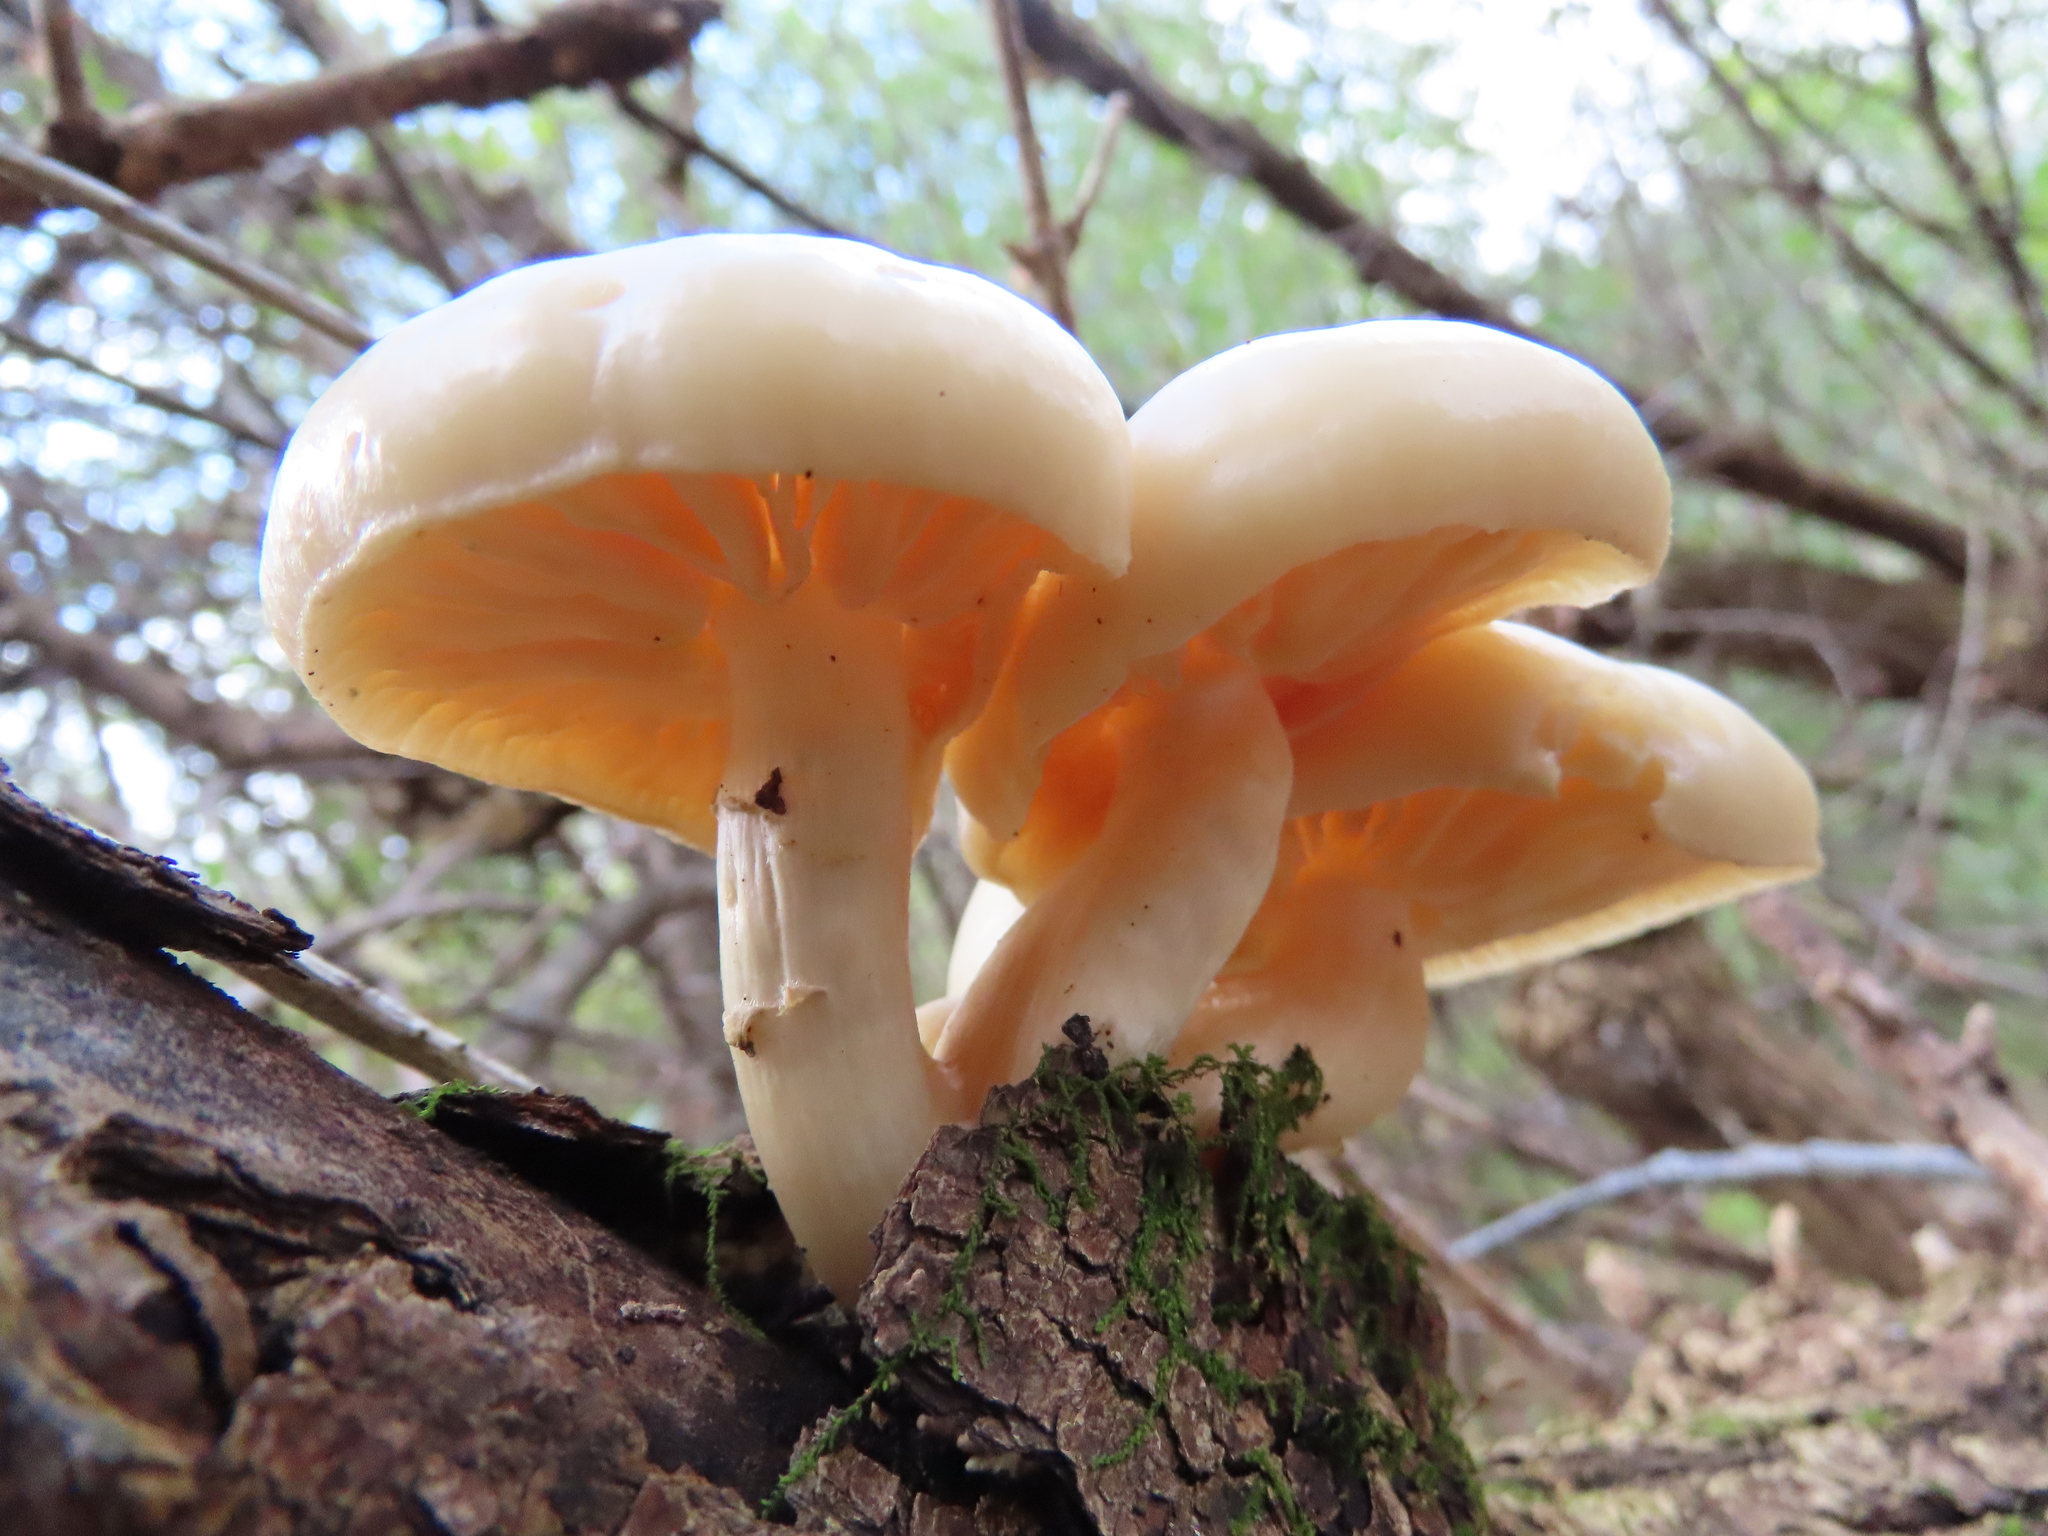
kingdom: Fungi
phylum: Basidiomycota
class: Agaricomycetes
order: Agaricales
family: Lyophyllaceae
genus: Hypsizygus
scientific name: Hypsizygus ulmarius
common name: Elm leech
